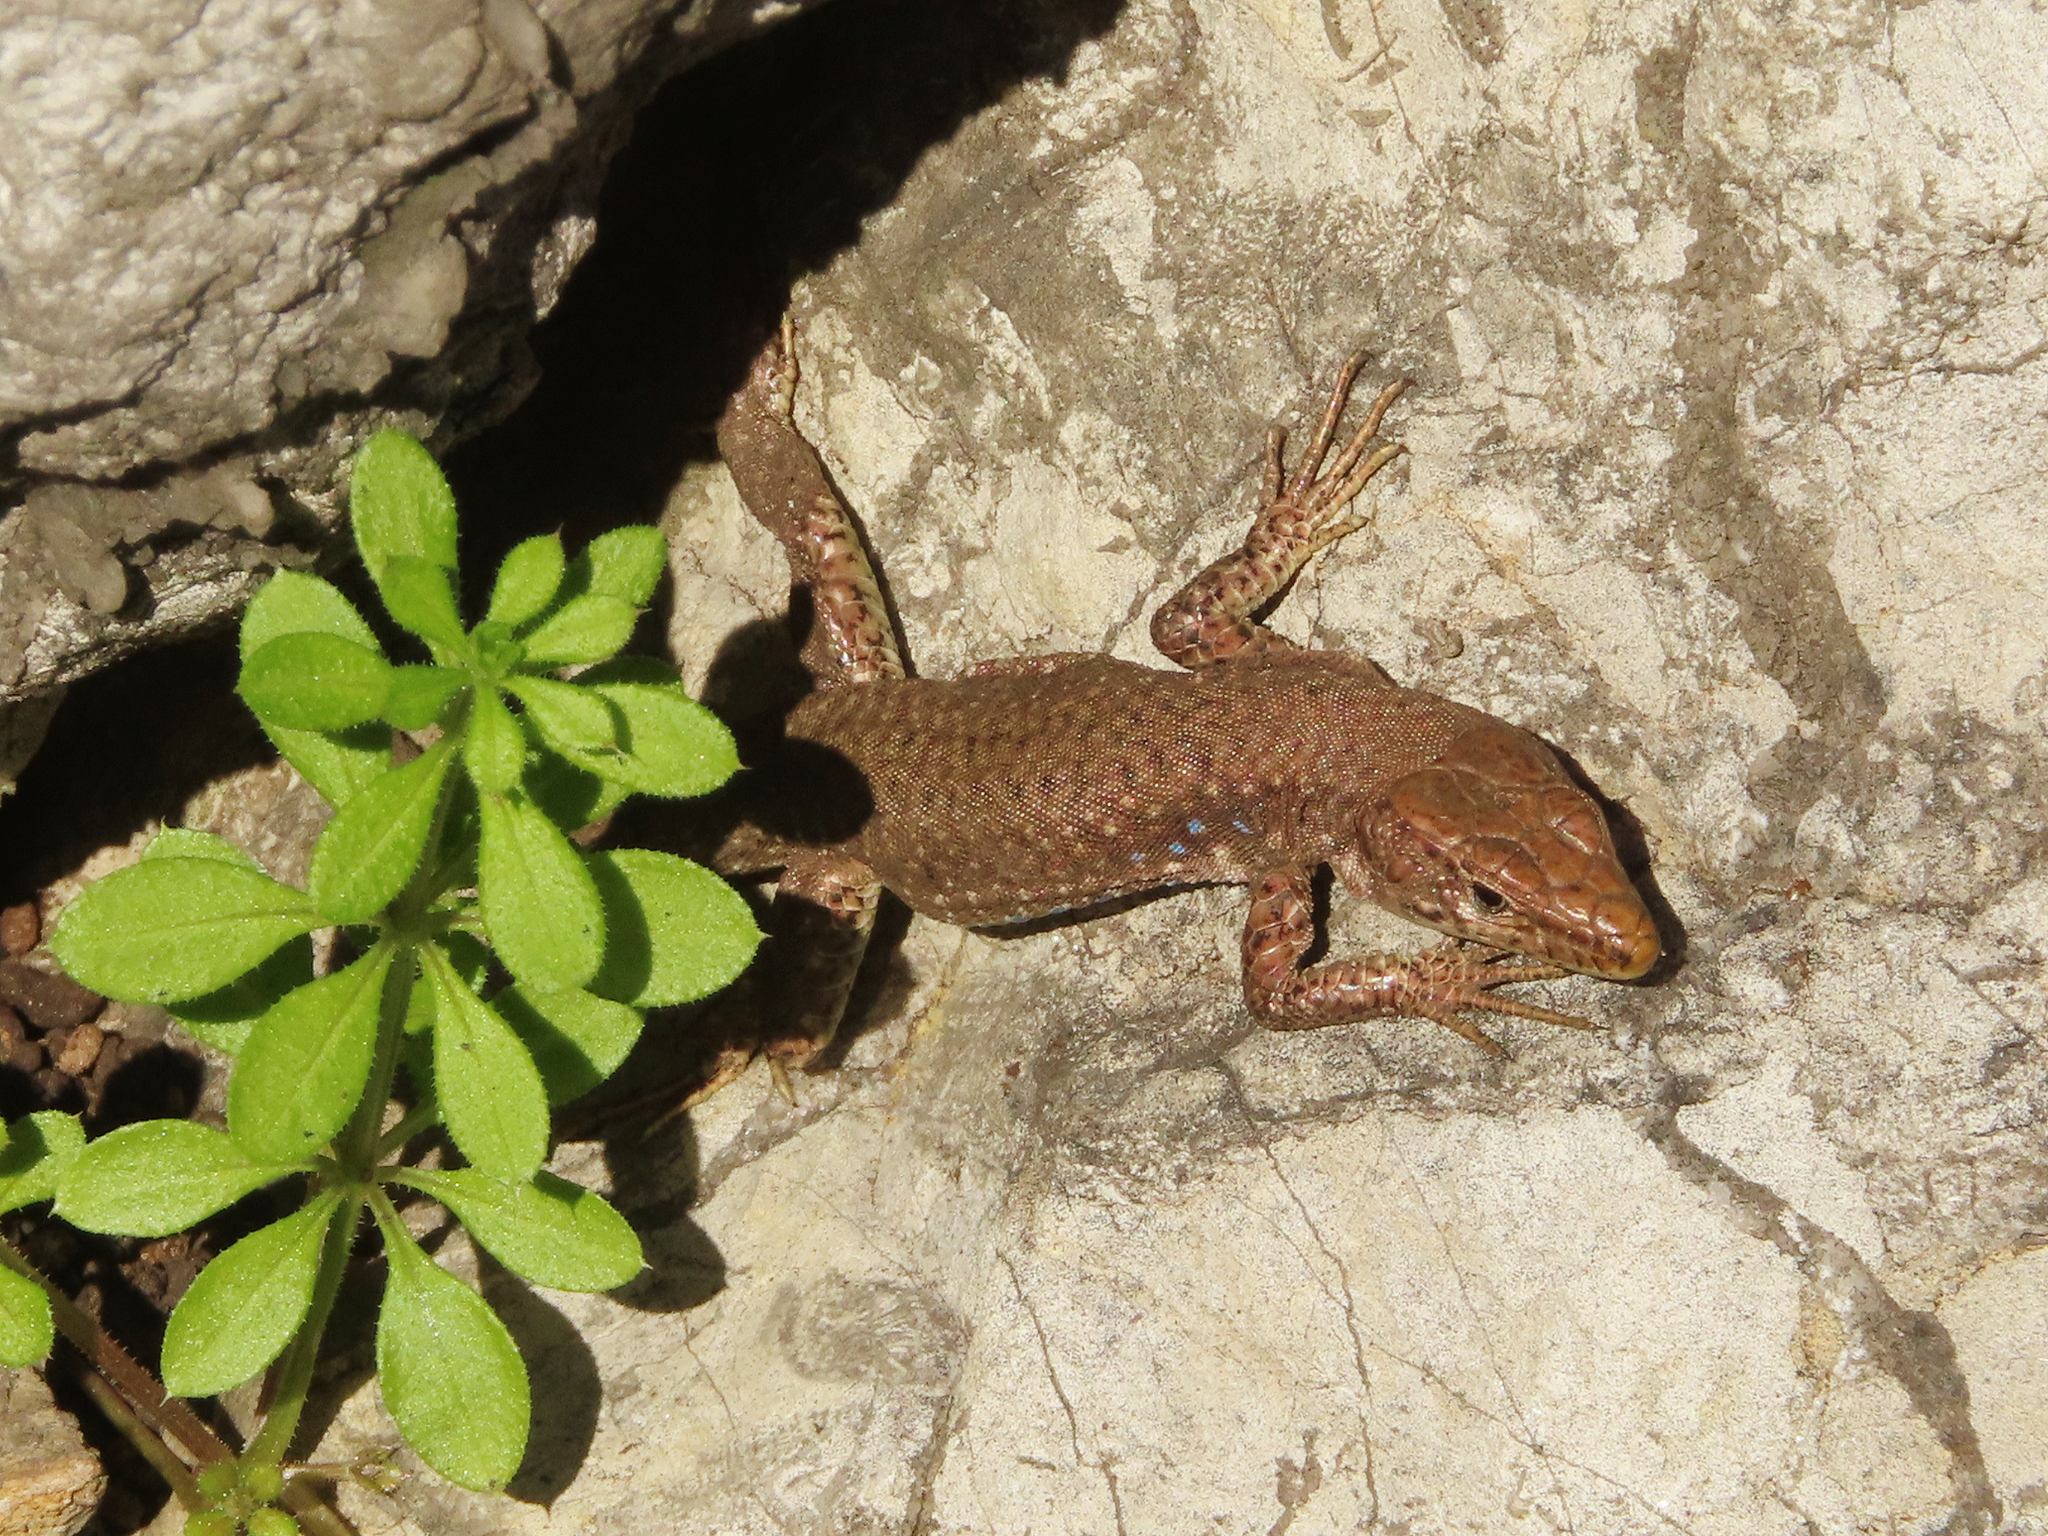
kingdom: Animalia
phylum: Chordata
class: Squamata
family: Lacertidae
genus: Darevskia
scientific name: Darevskia bithynica
